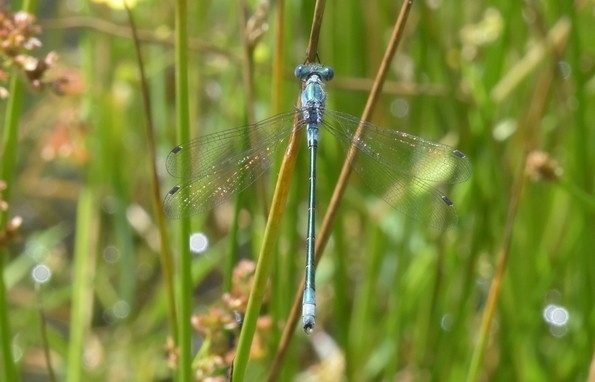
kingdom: Animalia
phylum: Arthropoda
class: Insecta
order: Odonata
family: Lestidae
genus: Lestes
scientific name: Lestes dryas
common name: Scarce emerald damselfly
